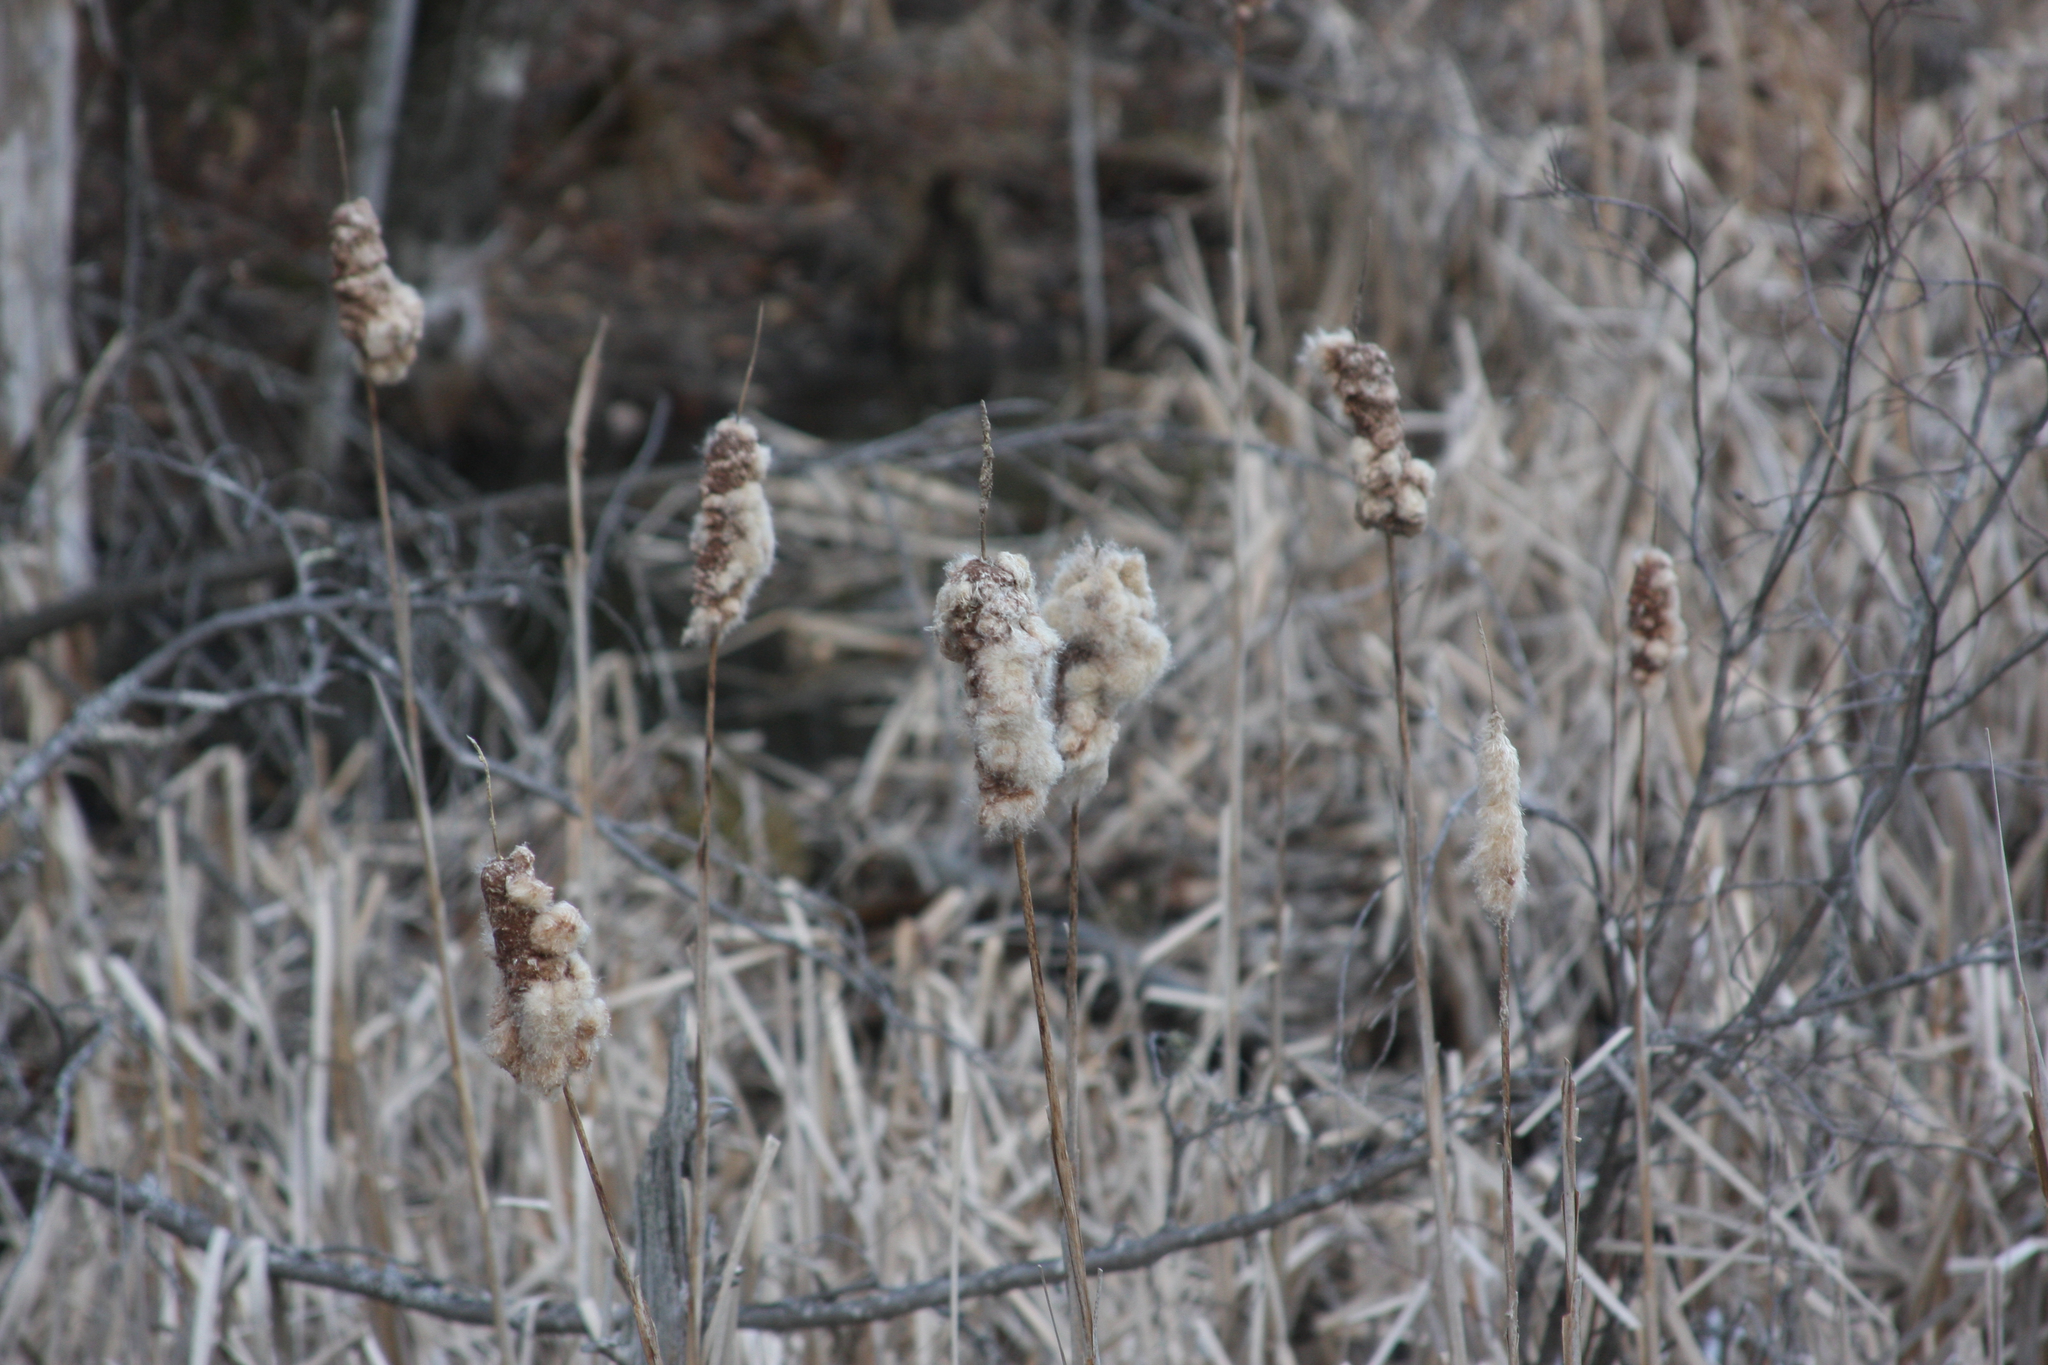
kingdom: Plantae
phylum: Tracheophyta
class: Liliopsida
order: Poales
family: Typhaceae
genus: Typha
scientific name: Typha latifolia
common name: Broadleaf cattail
